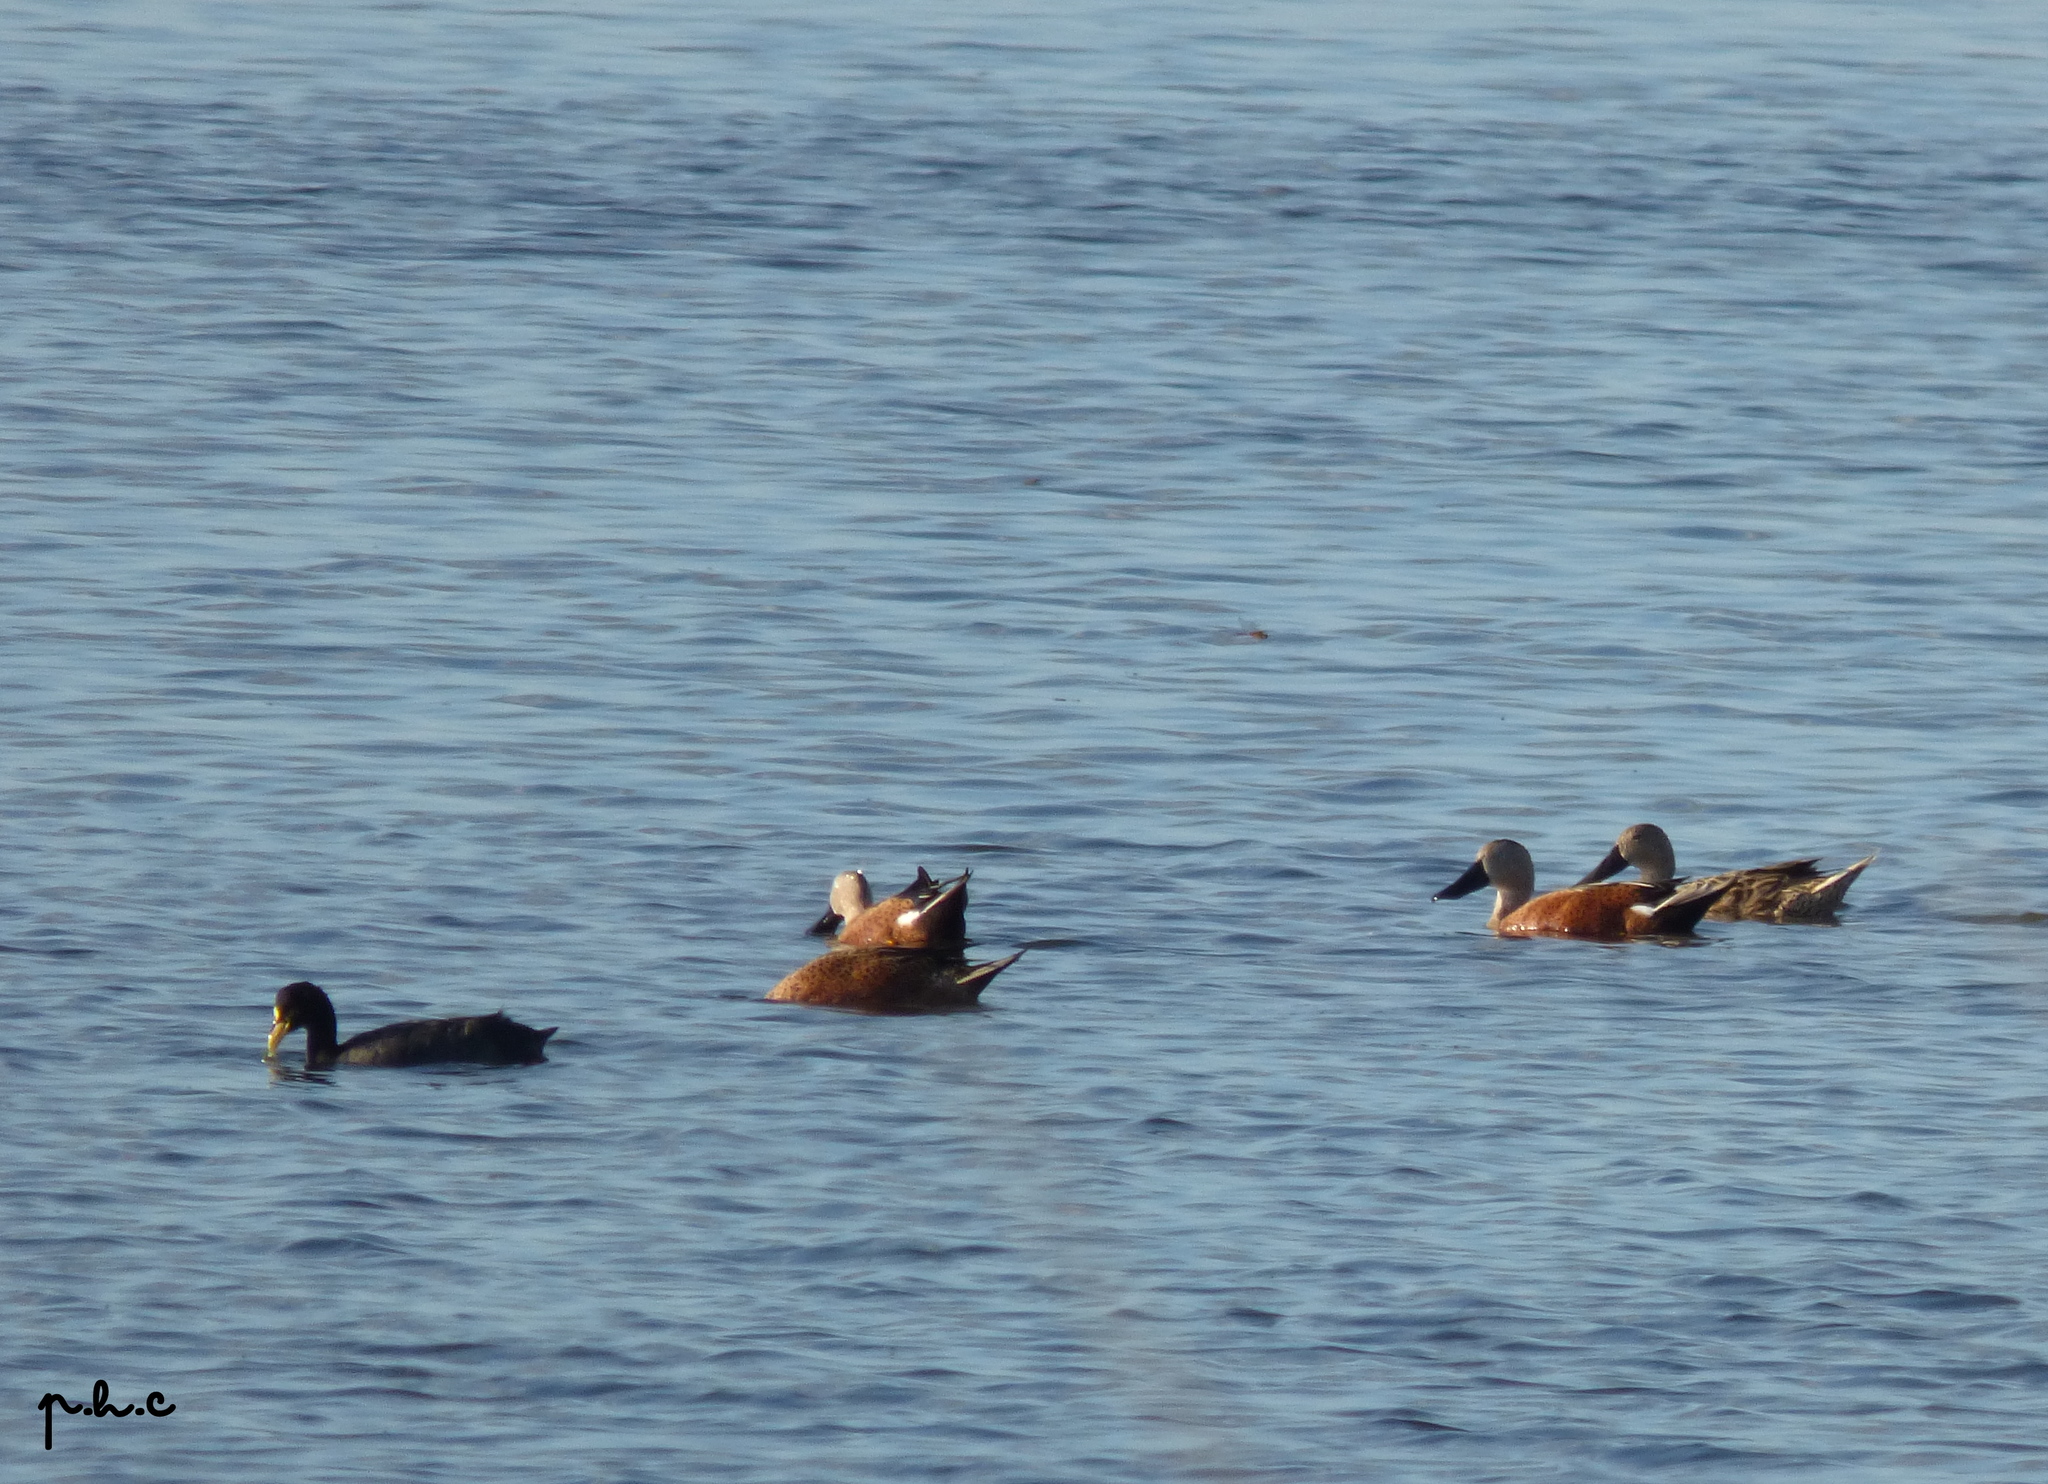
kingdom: Animalia
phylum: Chordata
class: Aves
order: Anseriformes
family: Anatidae
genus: Spatula
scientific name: Spatula platalea
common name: Red shoveler
